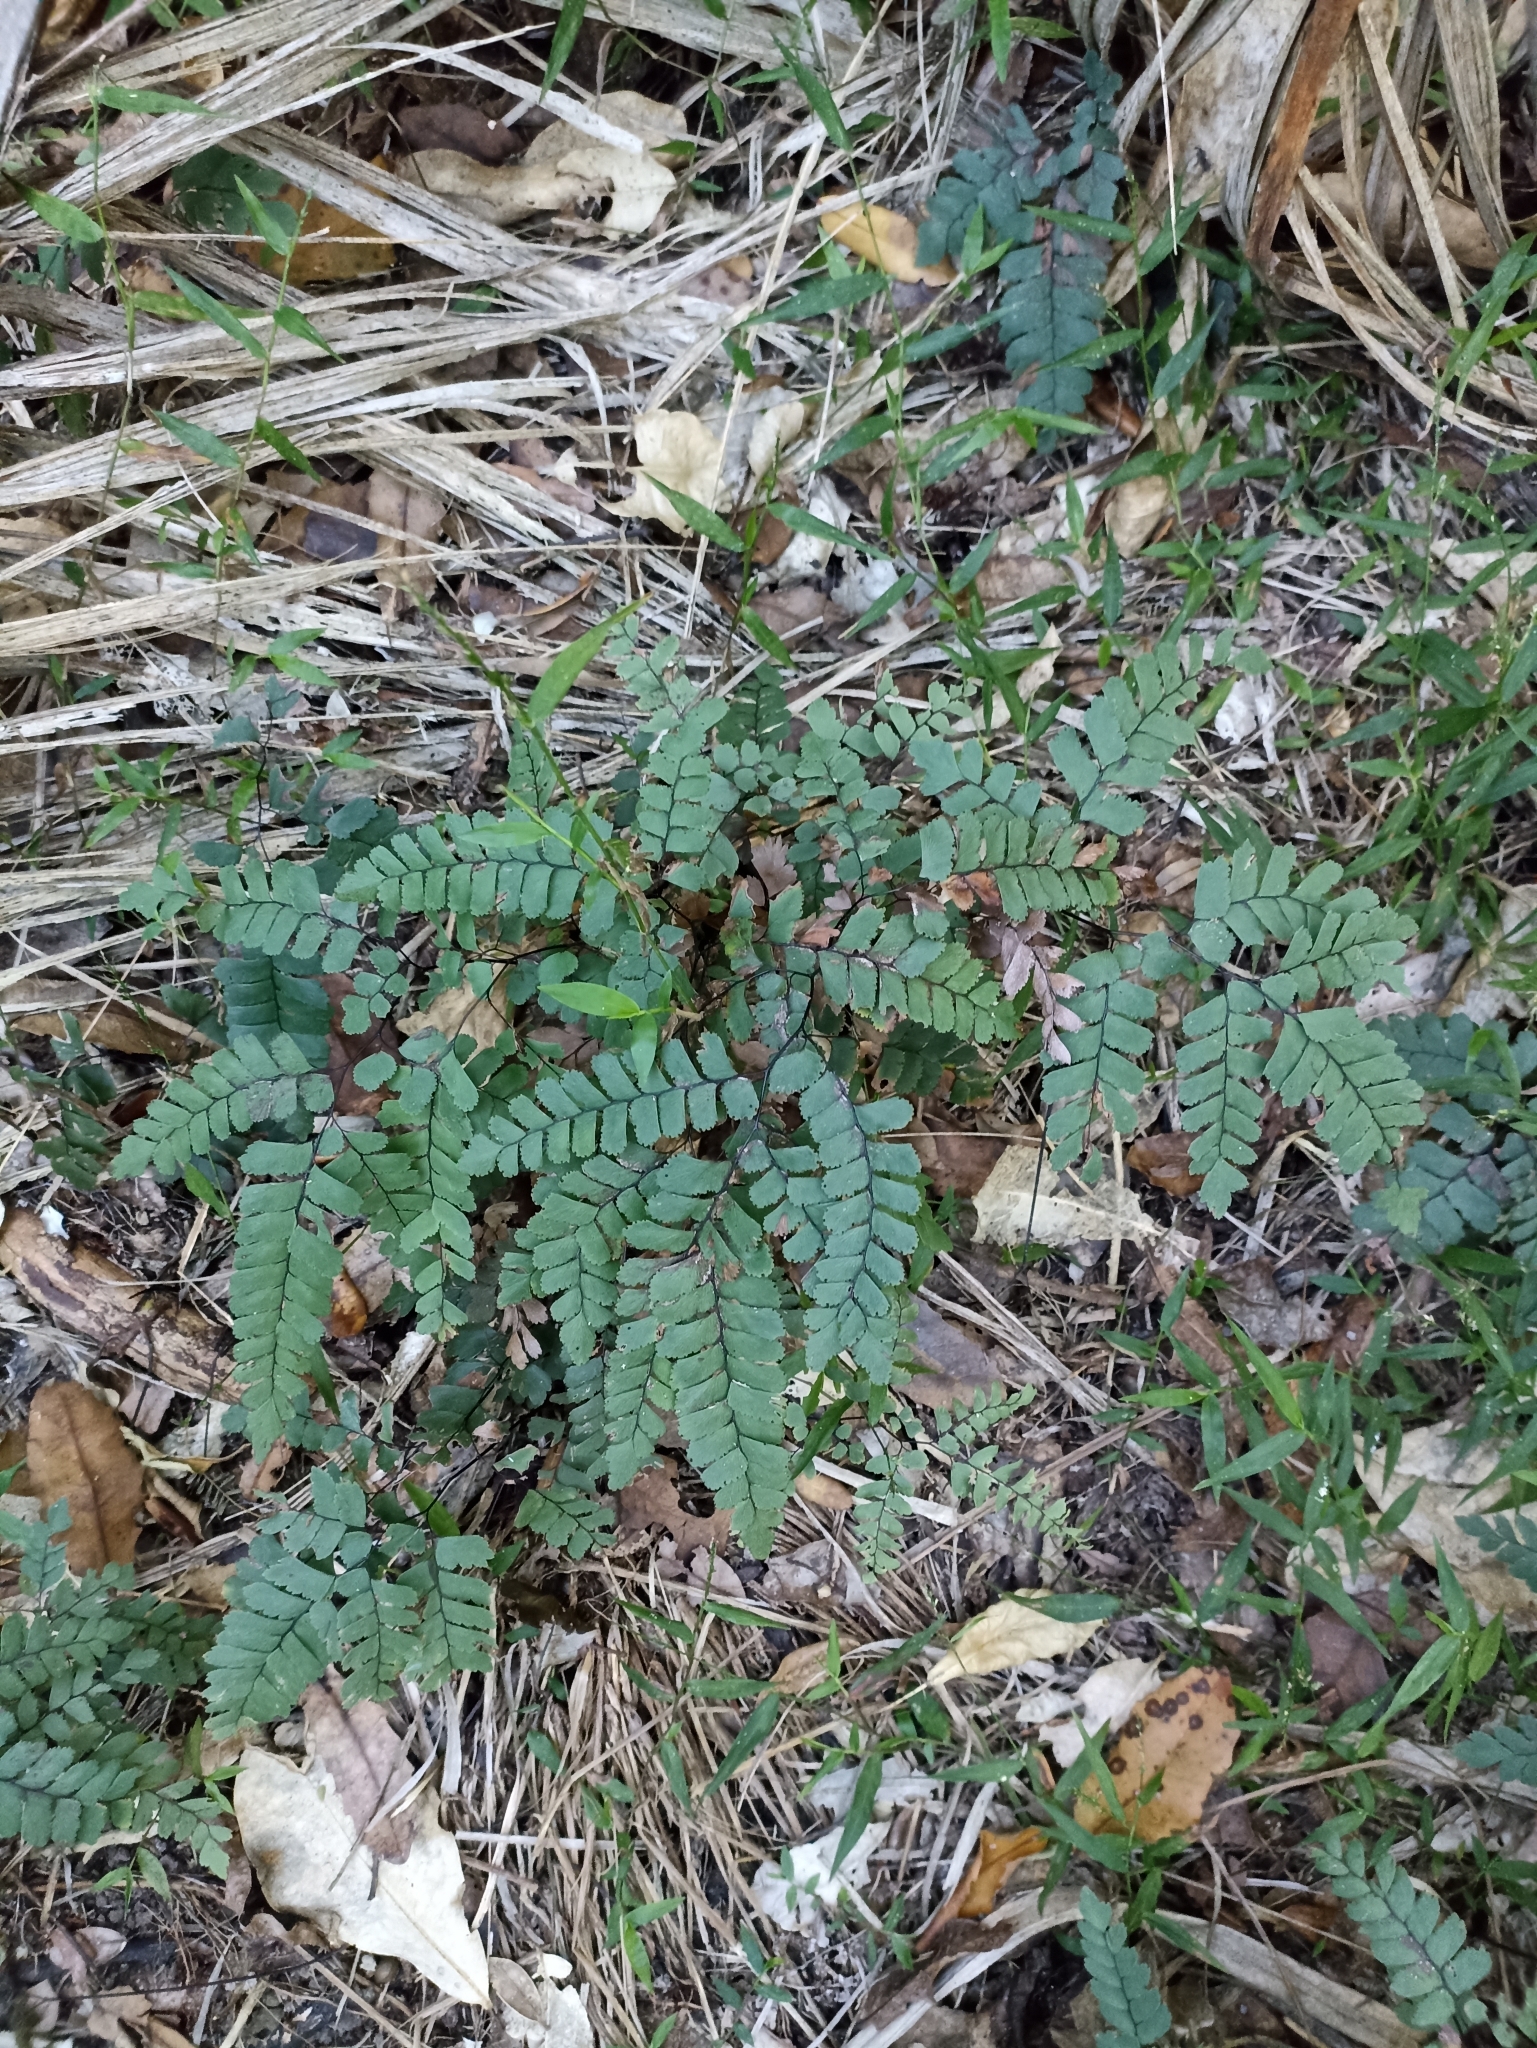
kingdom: Plantae
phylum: Tracheophyta
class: Polypodiopsida
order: Polypodiales
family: Pteridaceae
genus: Adiantum
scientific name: Adiantum cunninghamii
